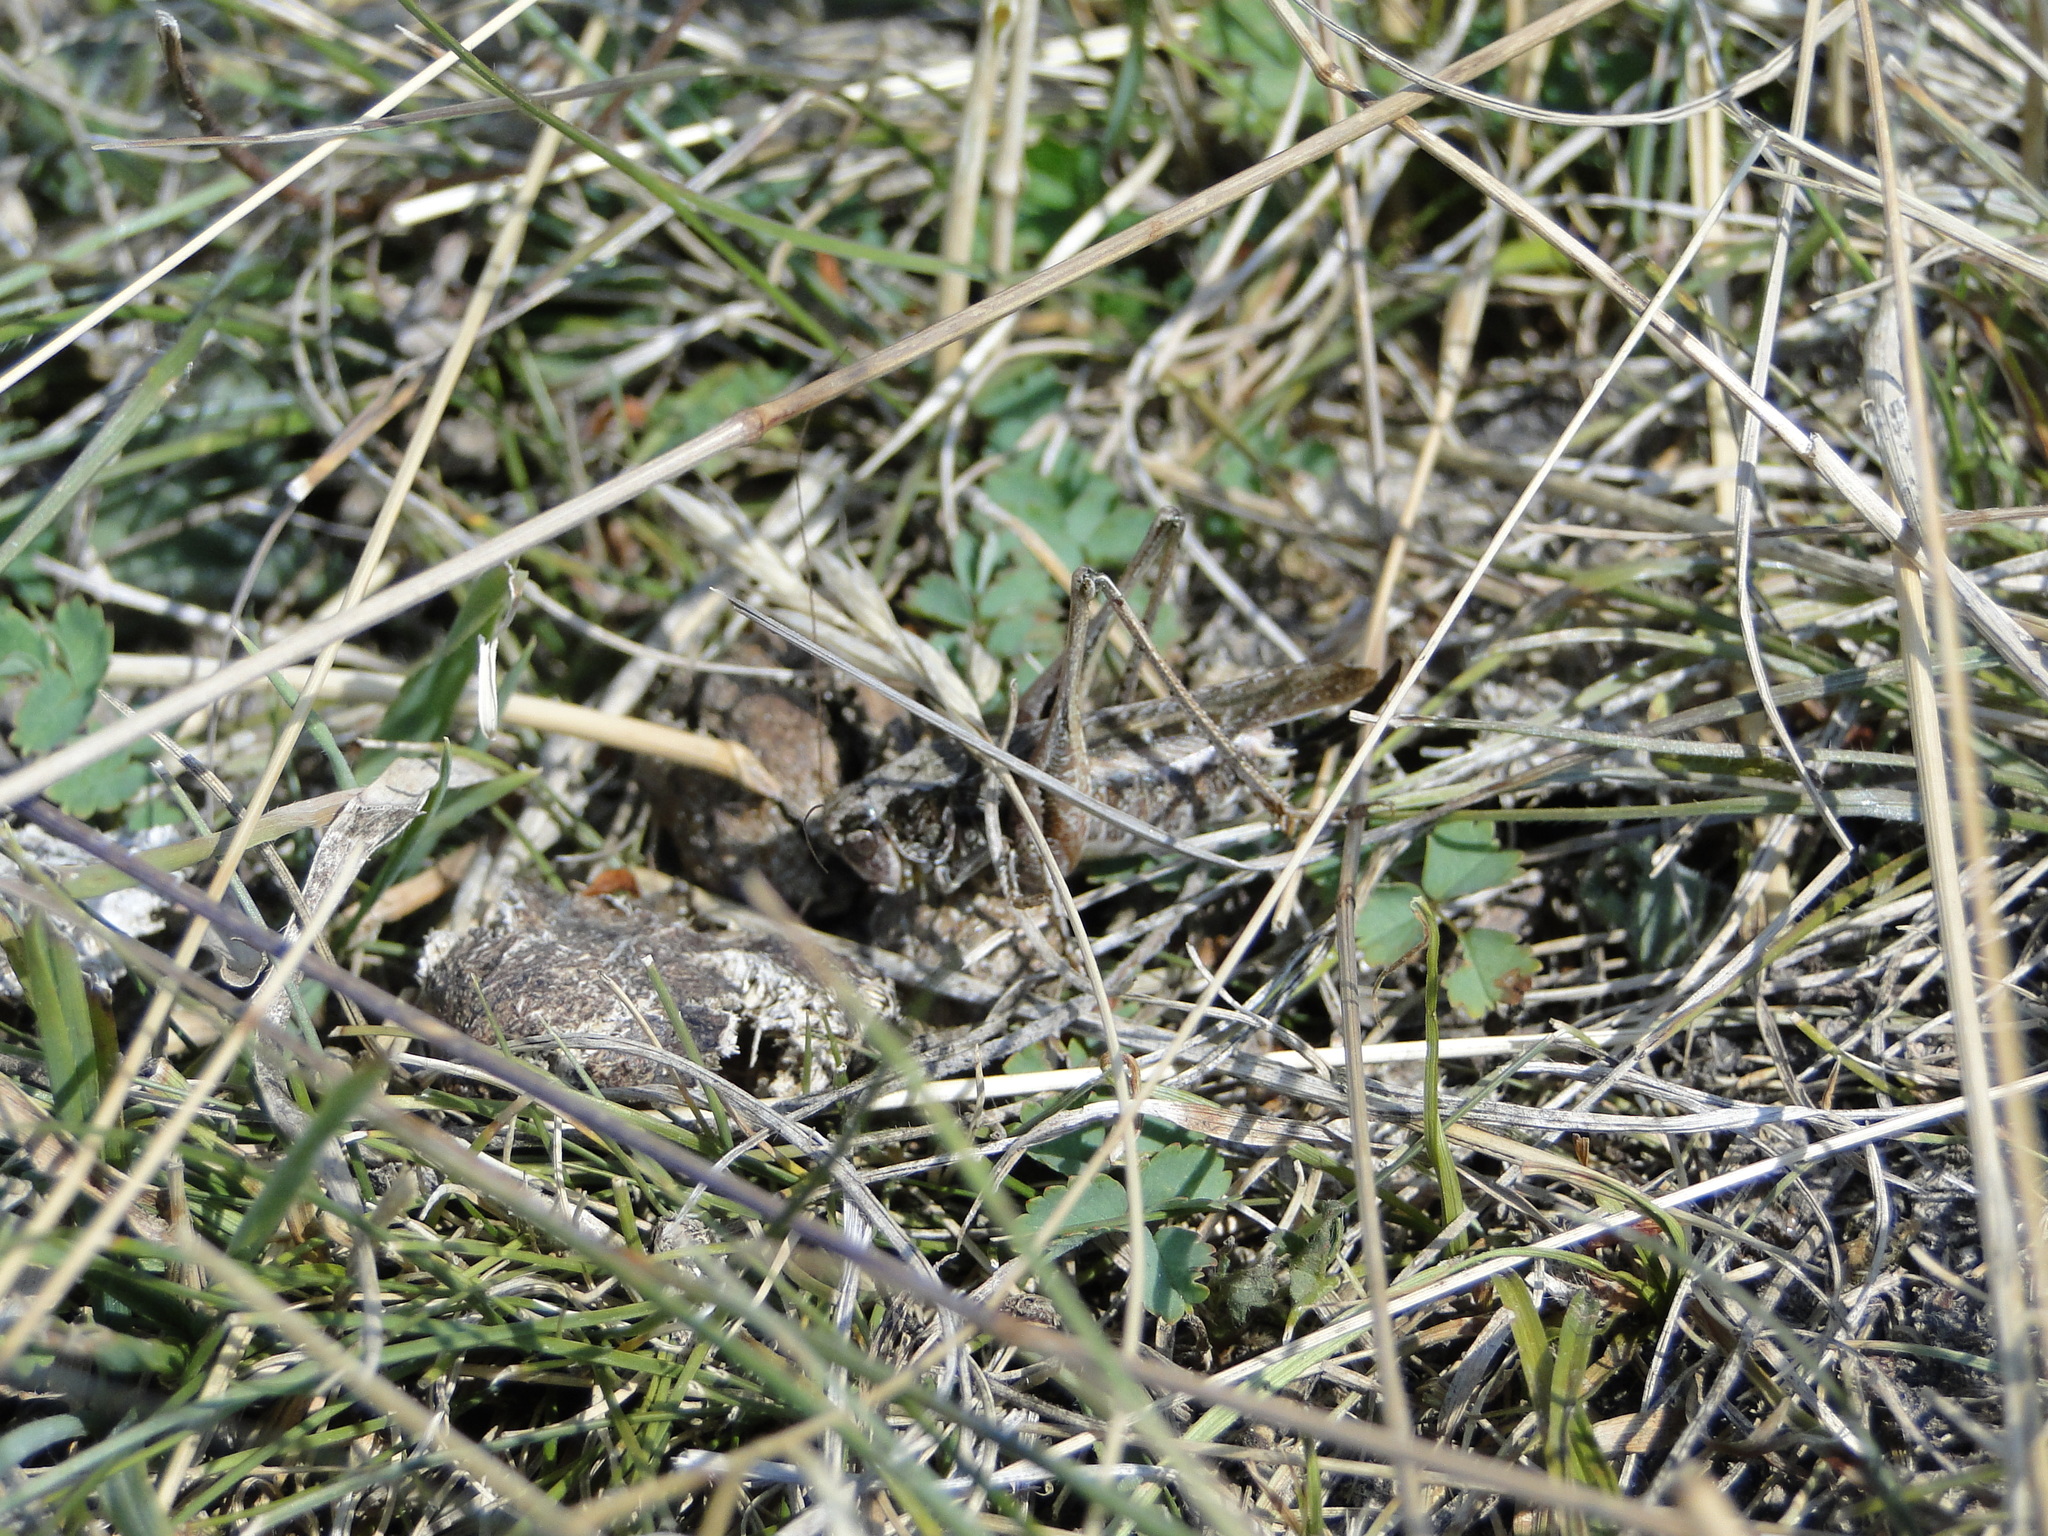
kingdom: Animalia
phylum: Arthropoda
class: Insecta
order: Orthoptera
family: Tettigoniidae
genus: Platycleis
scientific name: Platycleis albopunctata
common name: Grey bush-cricket
